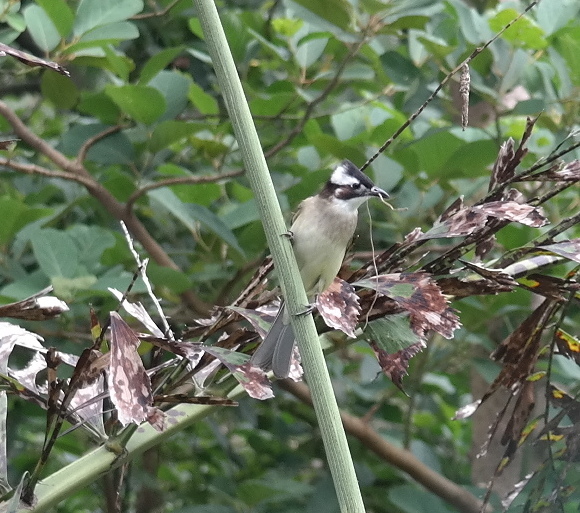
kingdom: Animalia
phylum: Chordata
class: Aves
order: Passeriformes
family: Pycnonotidae
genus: Pycnonotus
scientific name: Pycnonotus sinensis
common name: Light-vented bulbul
